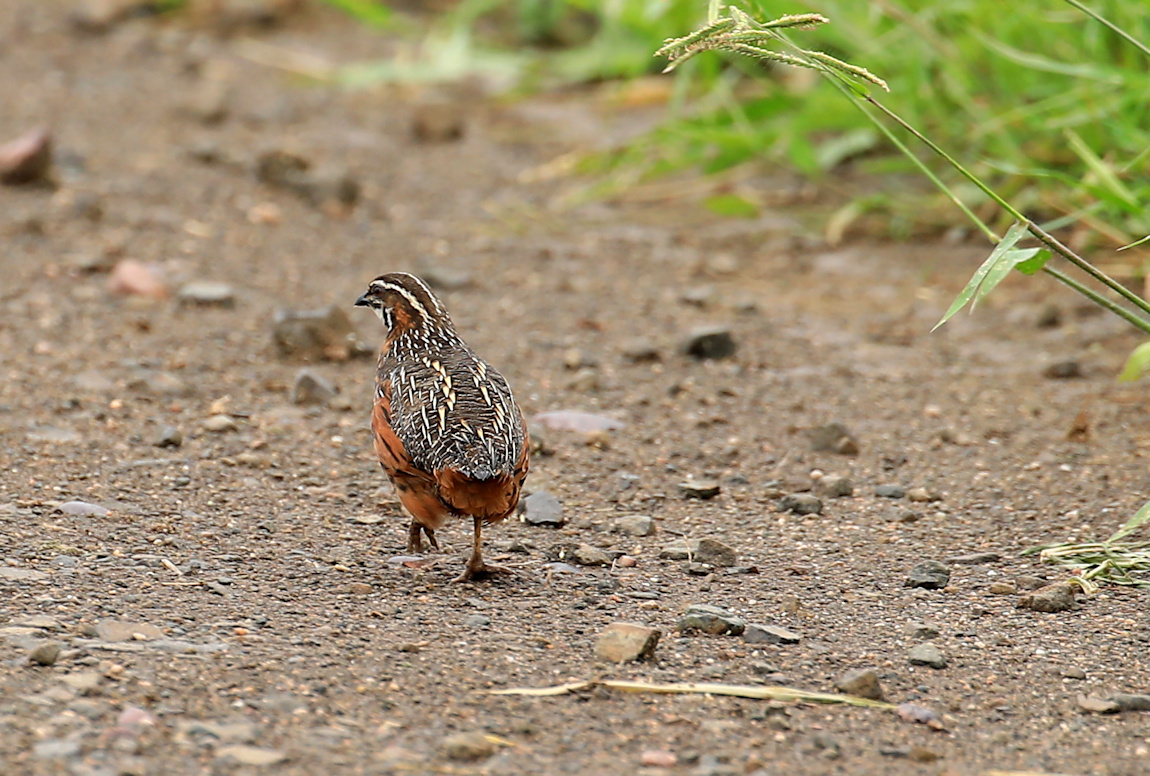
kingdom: Animalia
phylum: Chordata
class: Aves
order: Galliformes
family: Phasianidae
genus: Coturnix
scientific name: Coturnix delegorguei
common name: Harlequin quail
